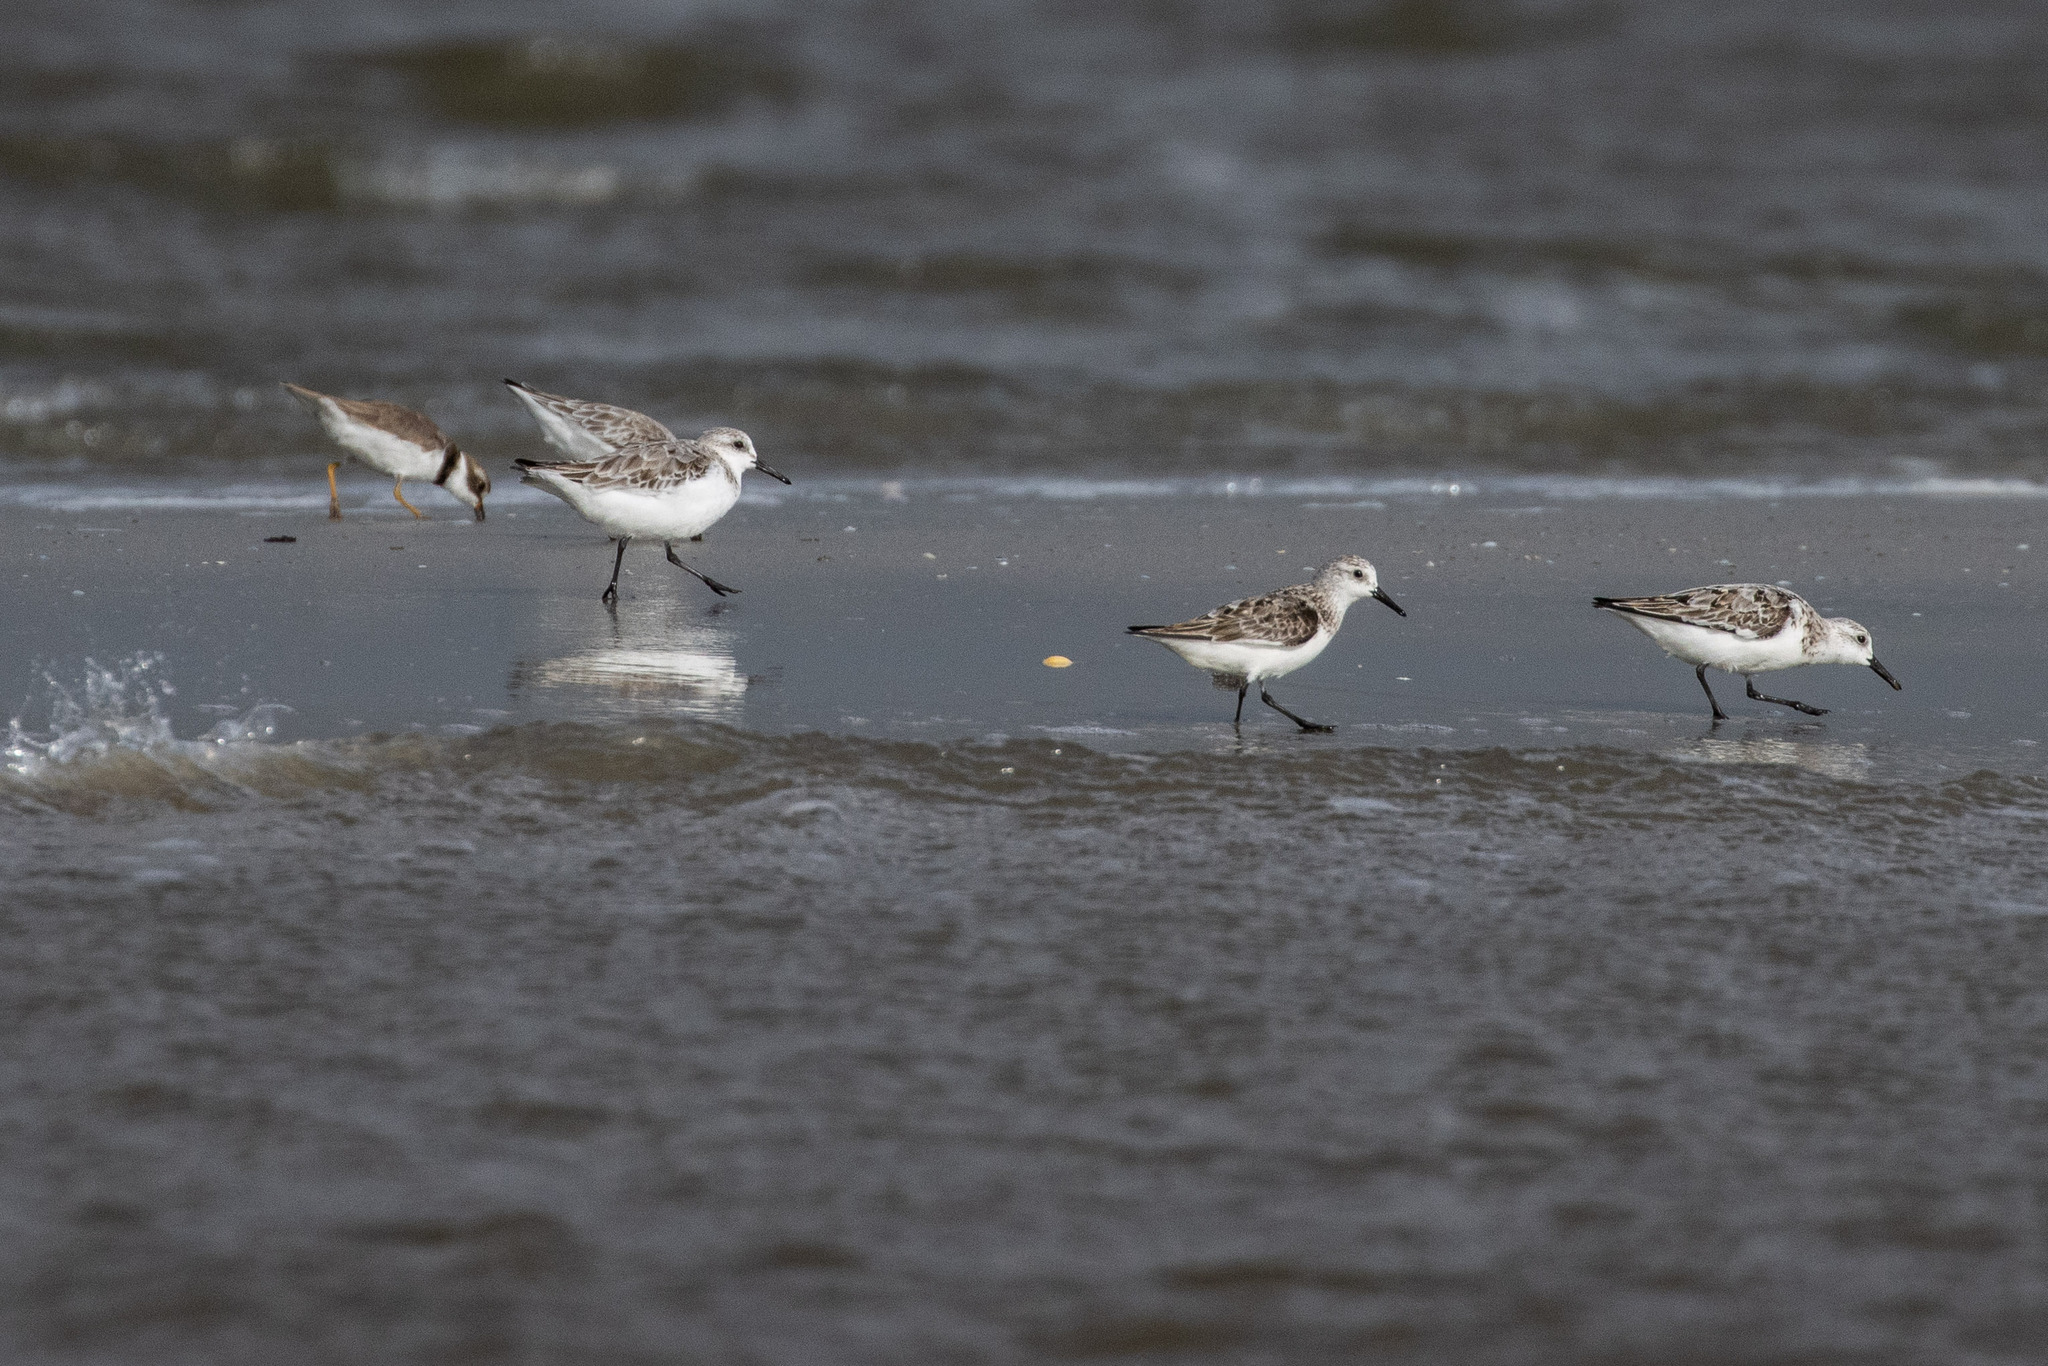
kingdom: Animalia
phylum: Chordata
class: Aves
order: Charadriiformes
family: Scolopacidae
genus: Calidris
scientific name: Calidris alba
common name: Sanderling
